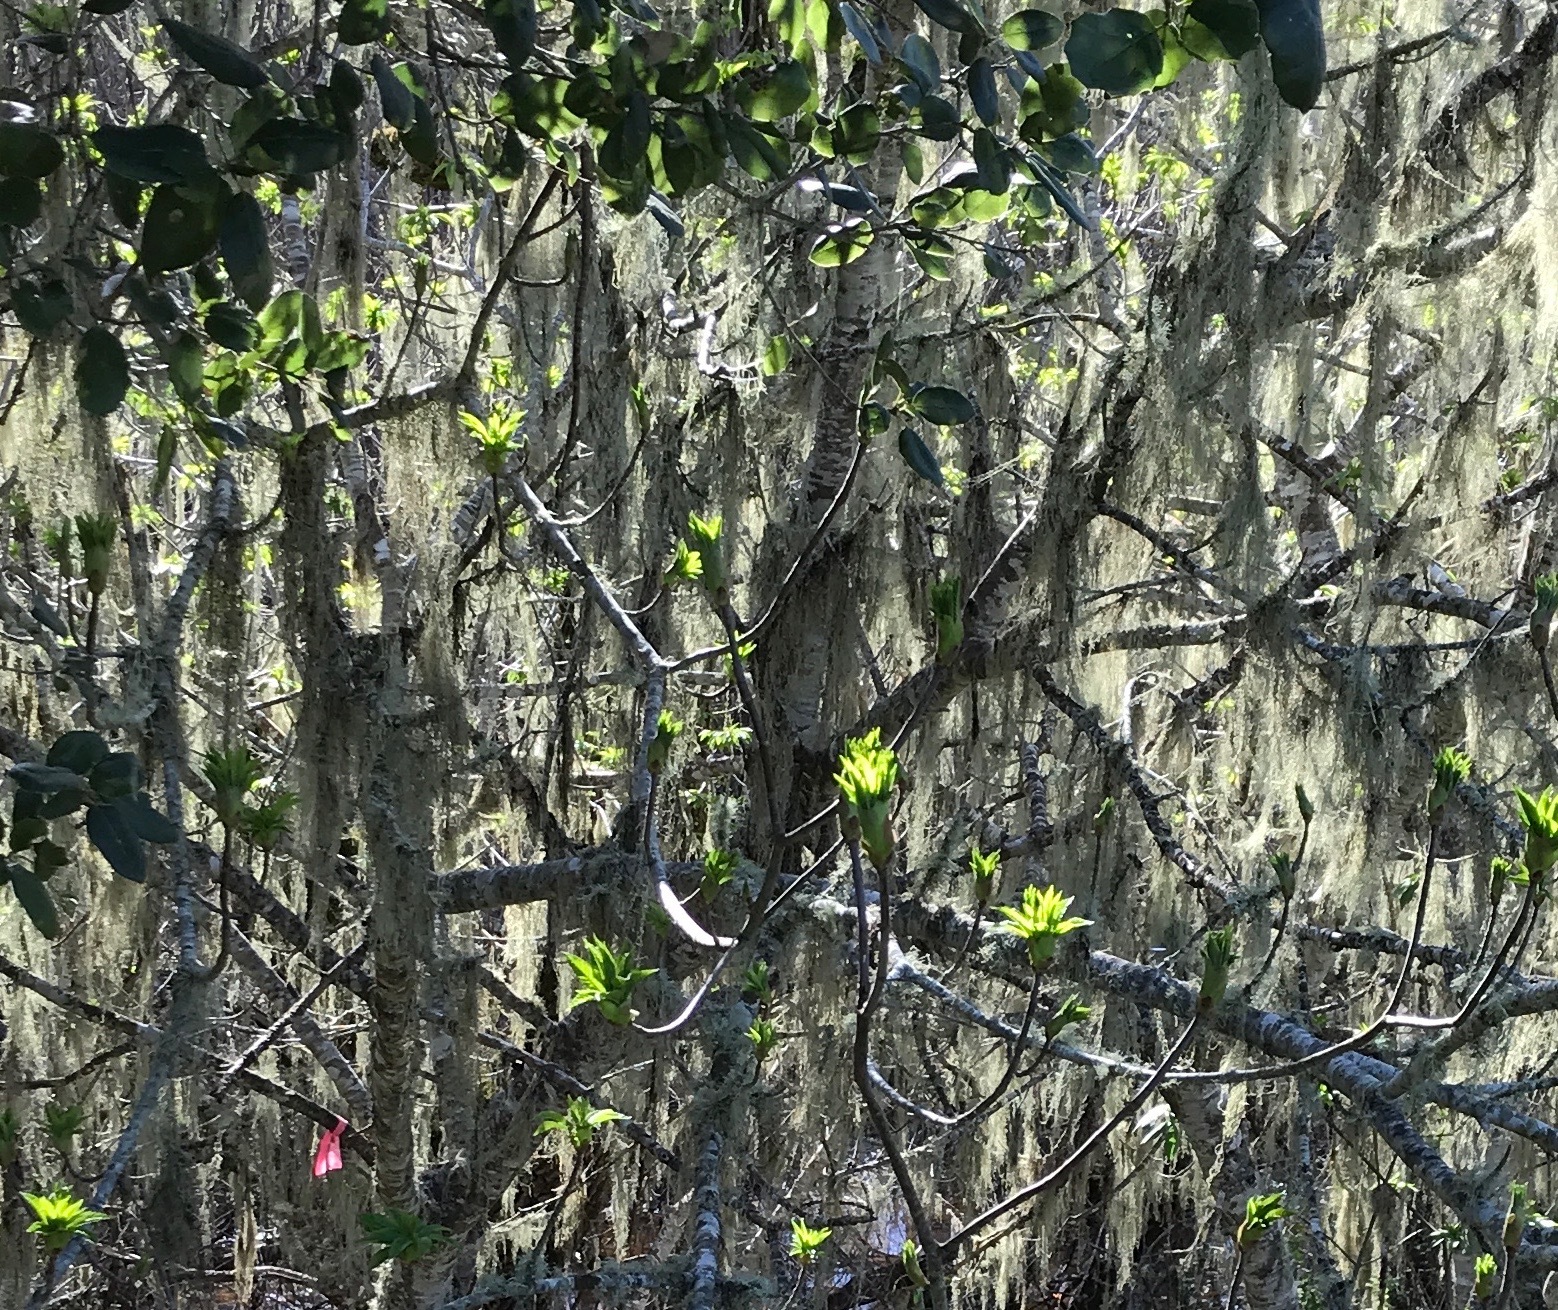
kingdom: Plantae
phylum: Tracheophyta
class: Magnoliopsida
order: Sapindales
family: Sapindaceae
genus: Aesculus
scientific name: Aesculus californica
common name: California buckeye
